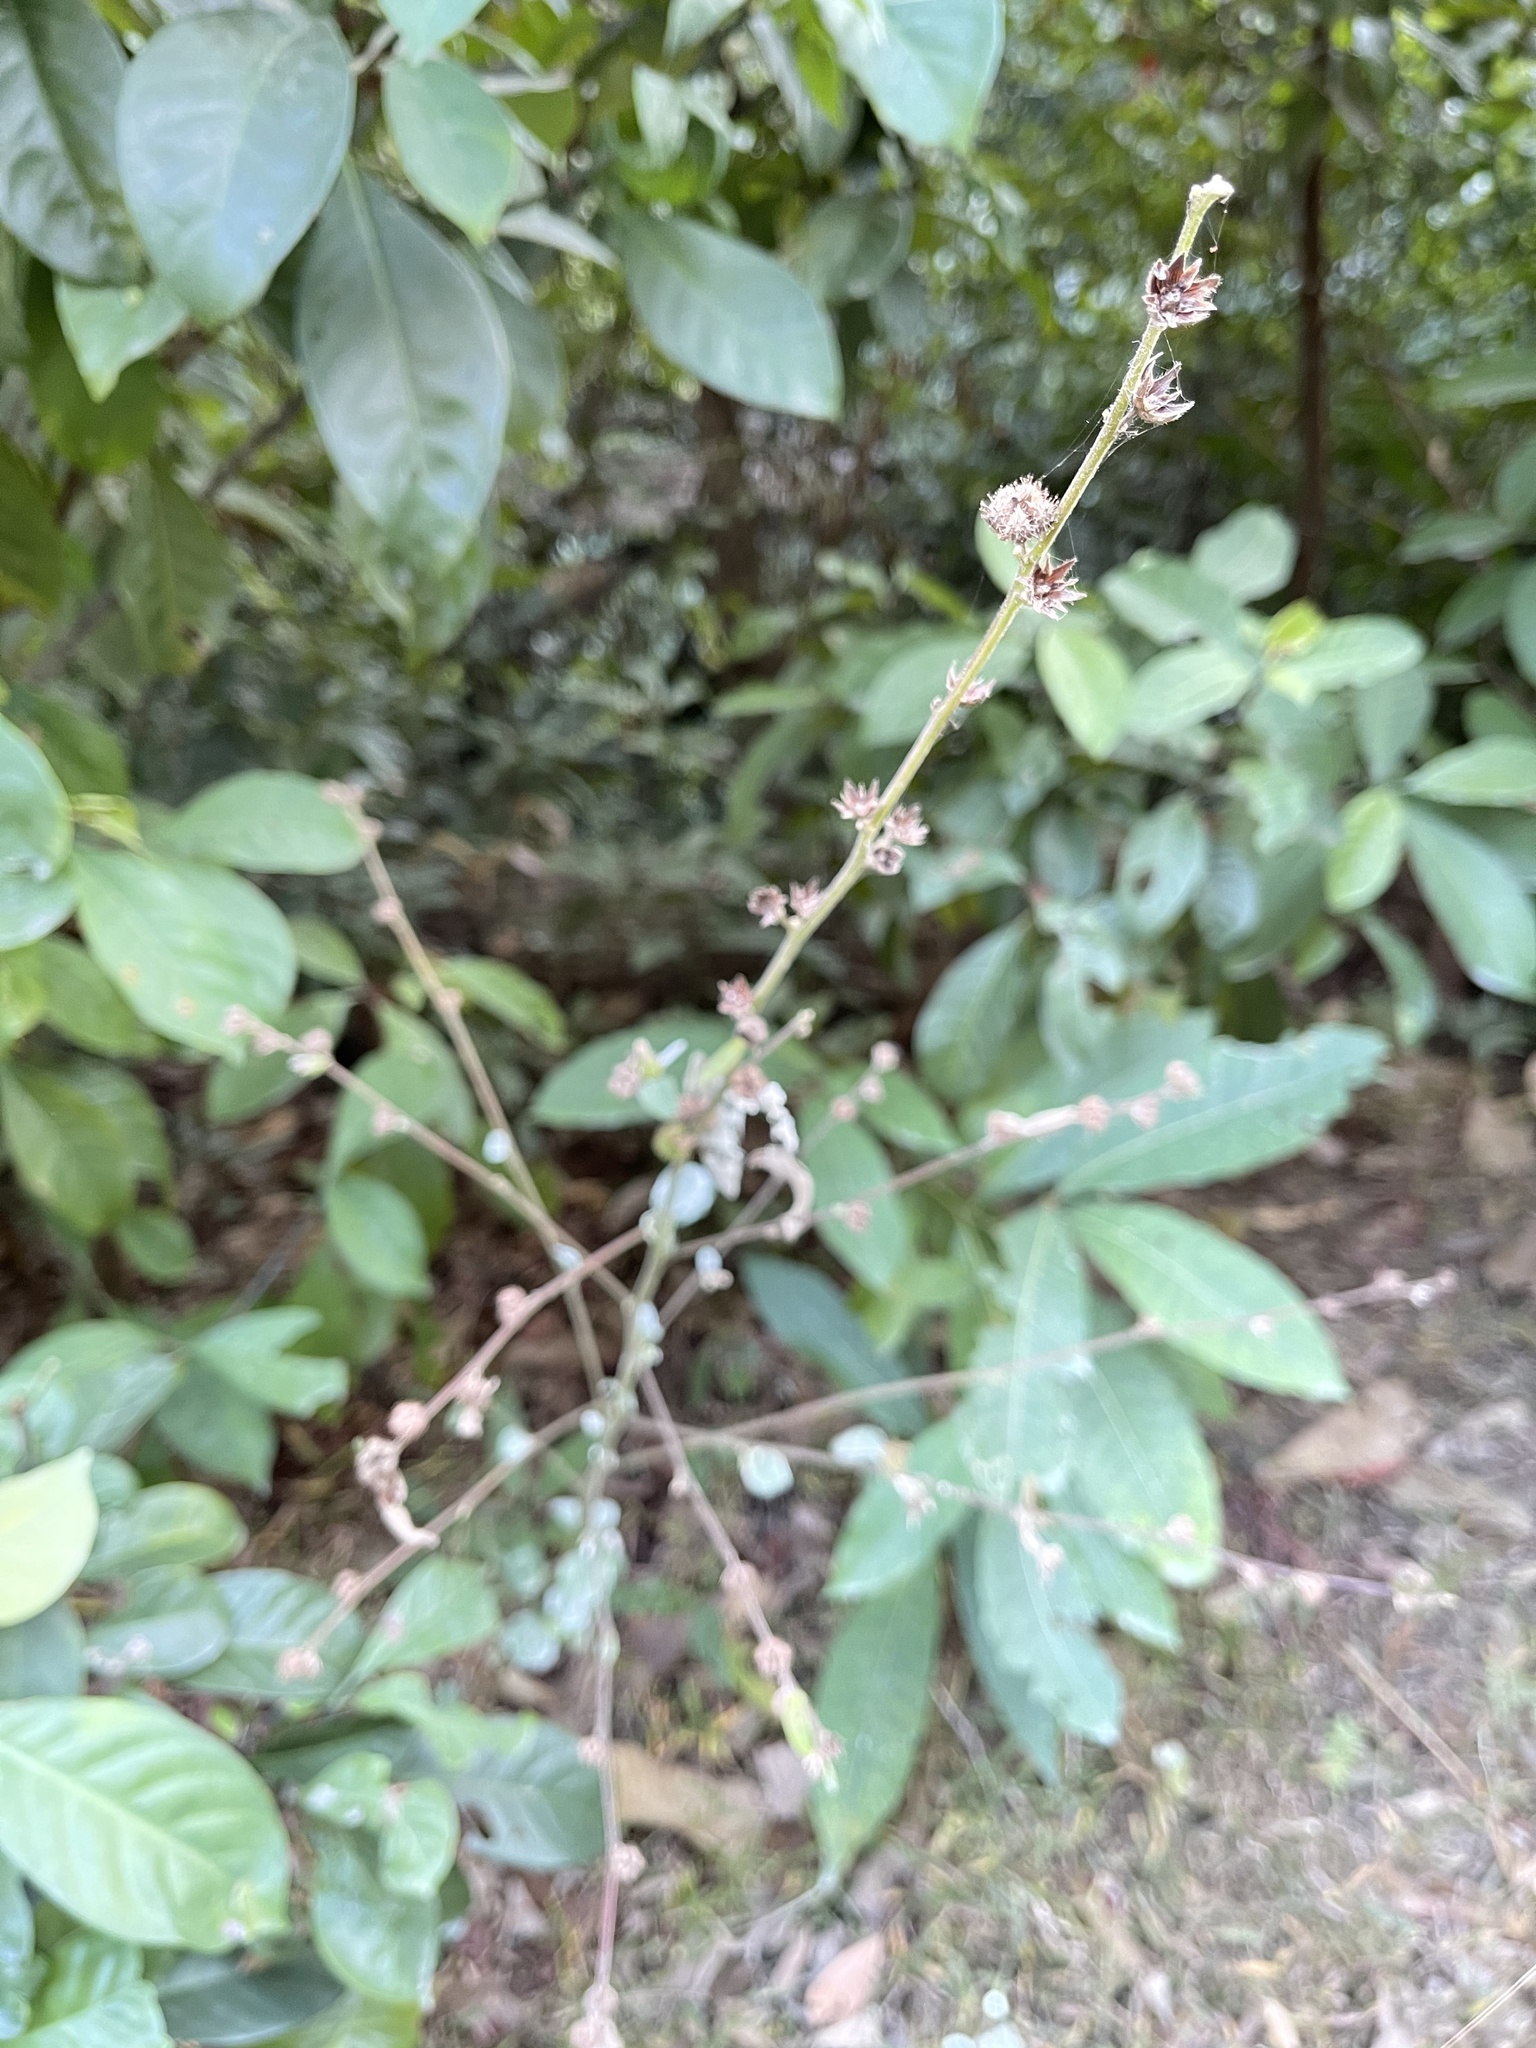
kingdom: Plantae
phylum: Tracheophyta
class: Magnoliopsida
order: Malvales
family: Malvaceae
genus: Urena
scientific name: Urena lobata
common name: Caesarweed
